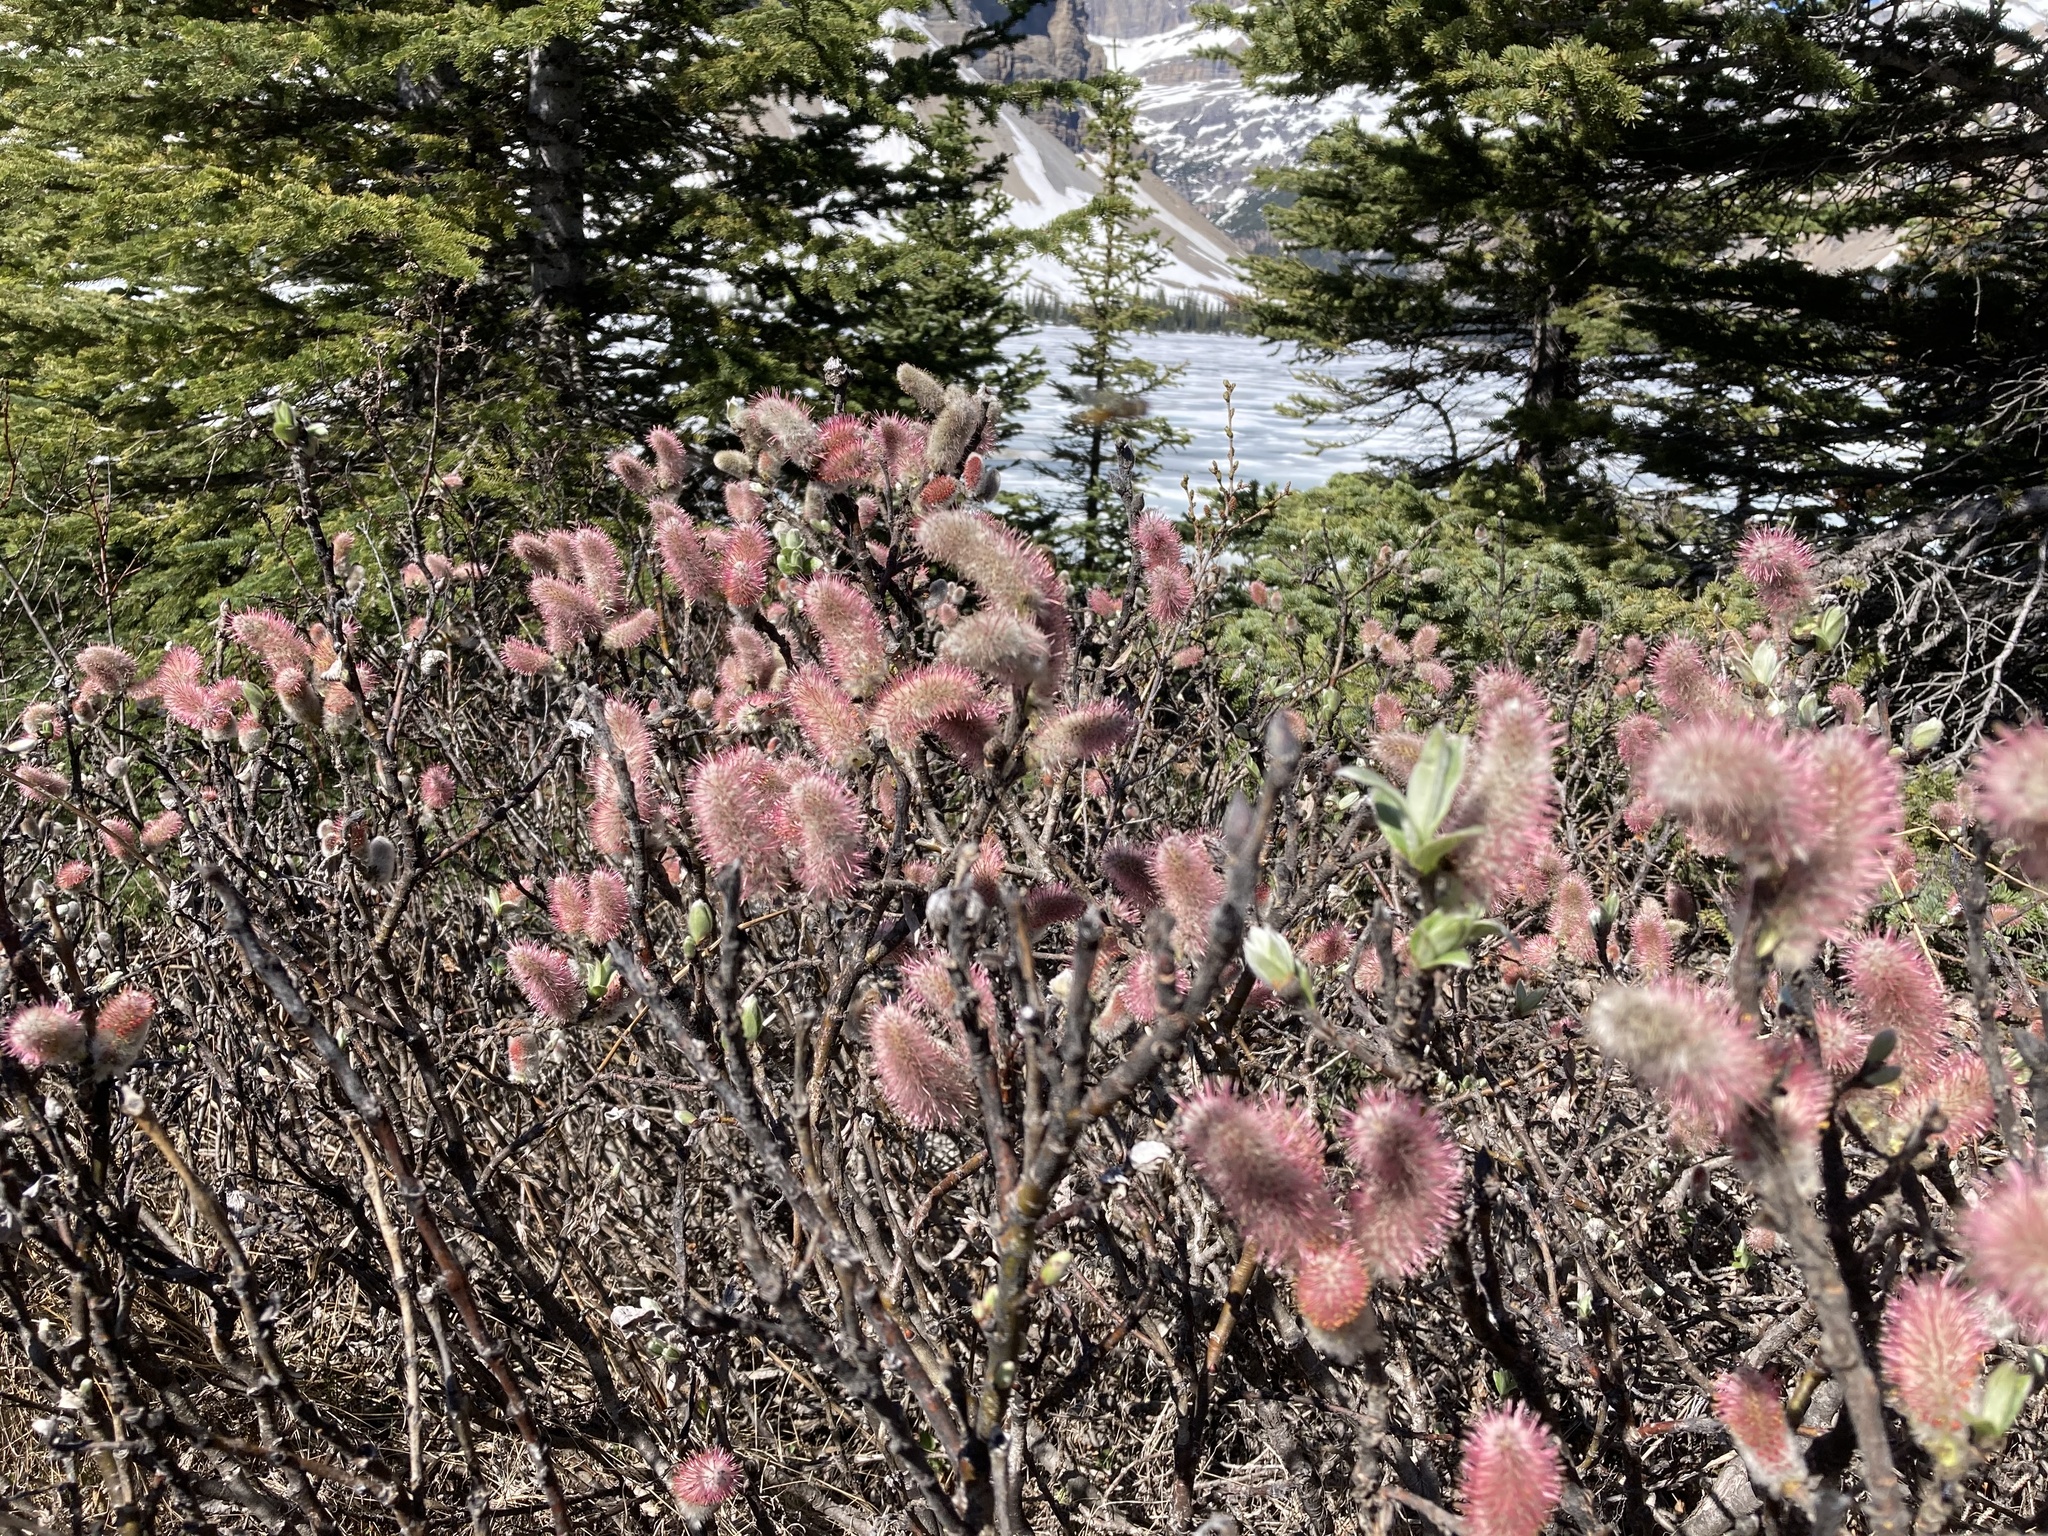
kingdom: Plantae
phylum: Tracheophyta
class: Magnoliopsida
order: Malpighiales
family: Salicaceae
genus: Salix
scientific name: Salix barrattiana
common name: Barratt's willow
